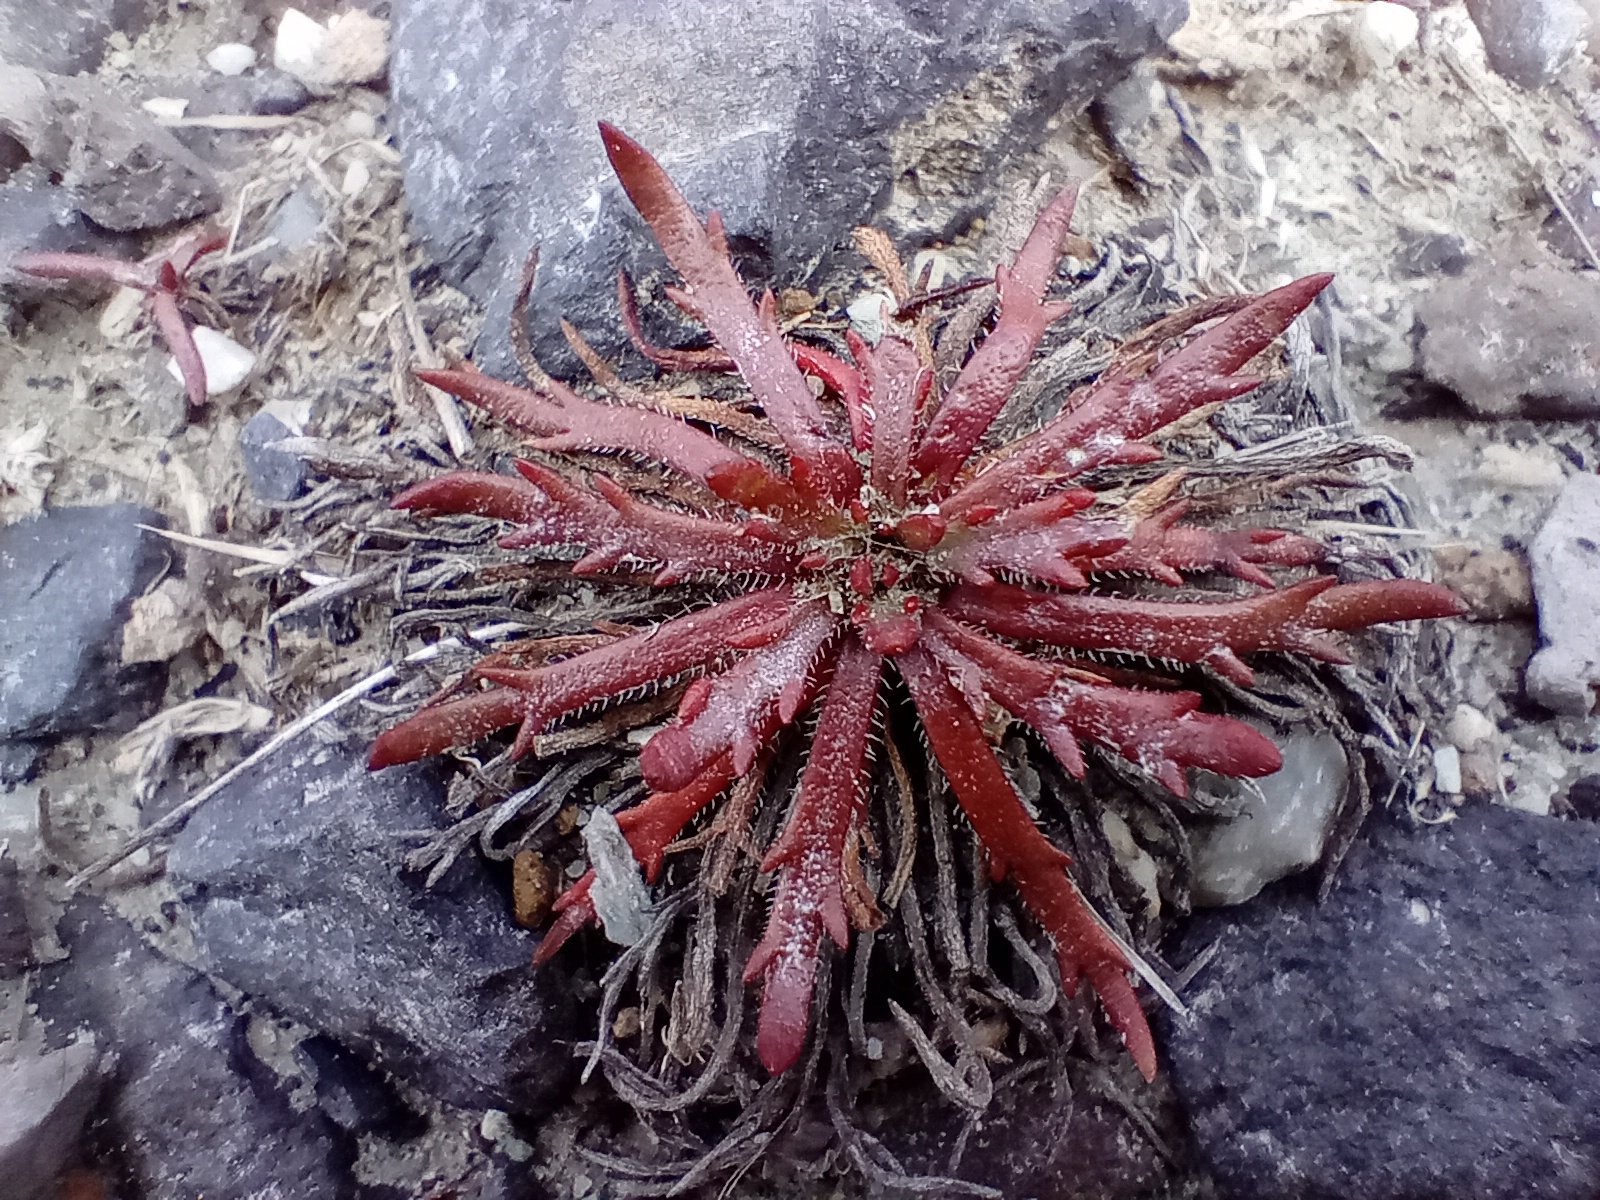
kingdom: Plantae
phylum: Tracheophyta
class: Magnoliopsida
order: Lamiales
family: Plantaginaceae
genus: Plantago
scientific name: Plantago coronopus
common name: Buck's-horn plantain
